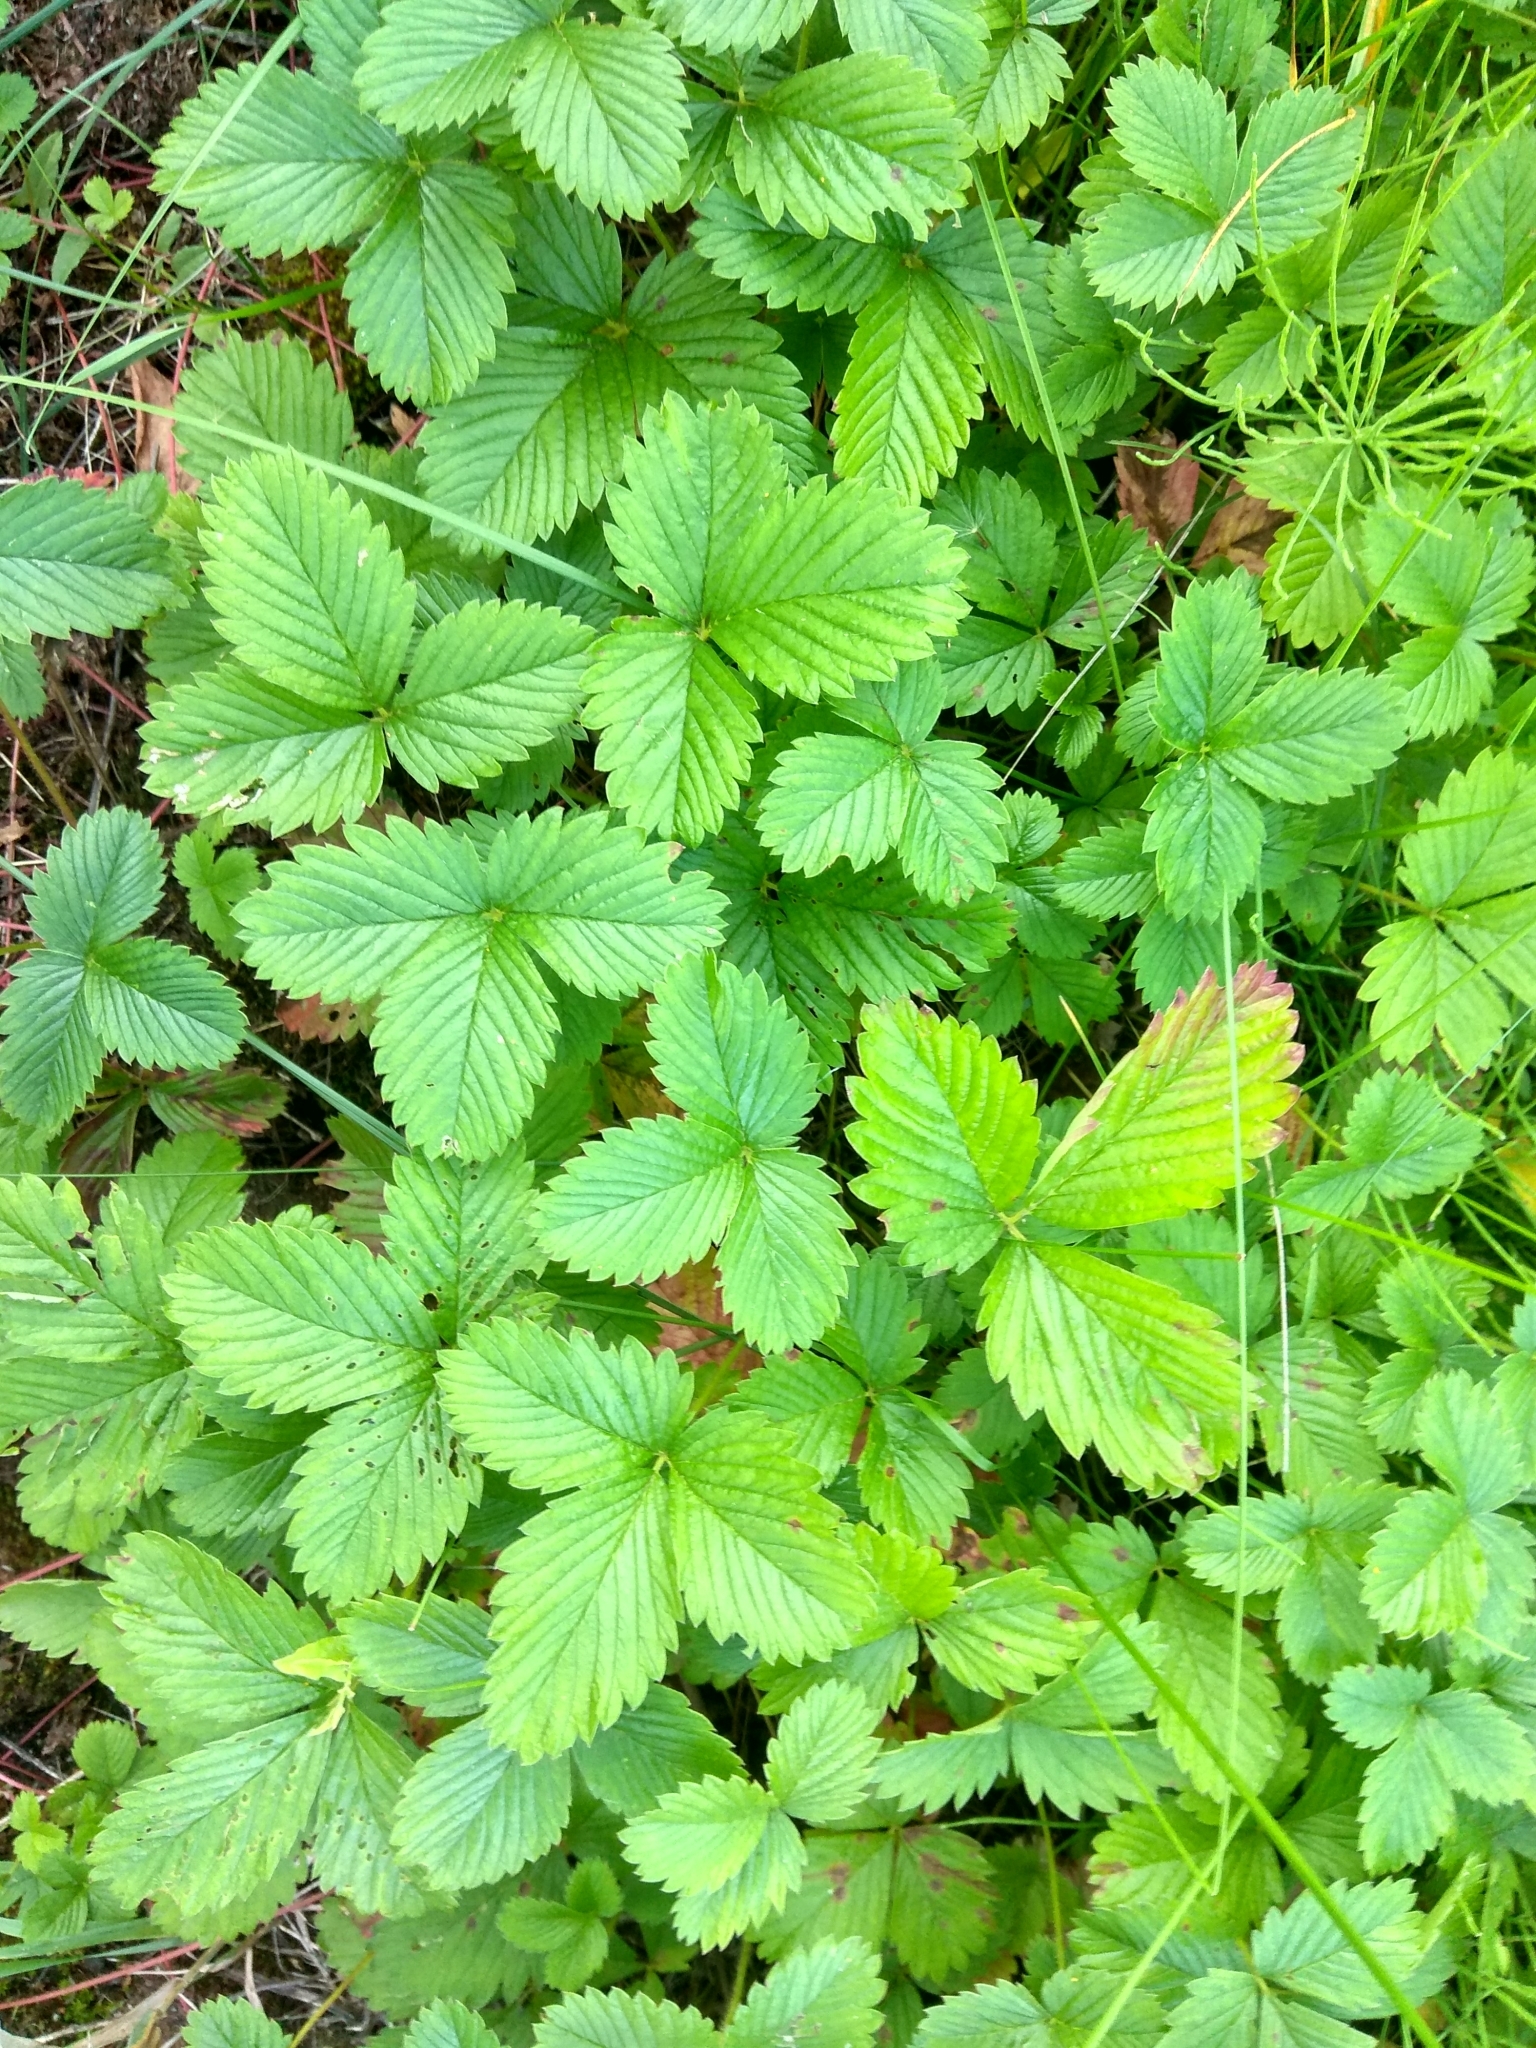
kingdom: Plantae
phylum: Tracheophyta
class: Magnoliopsida
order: Rosales
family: Rosaceae
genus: Fragaria
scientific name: Fragaria vesca
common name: Wild strawberry
